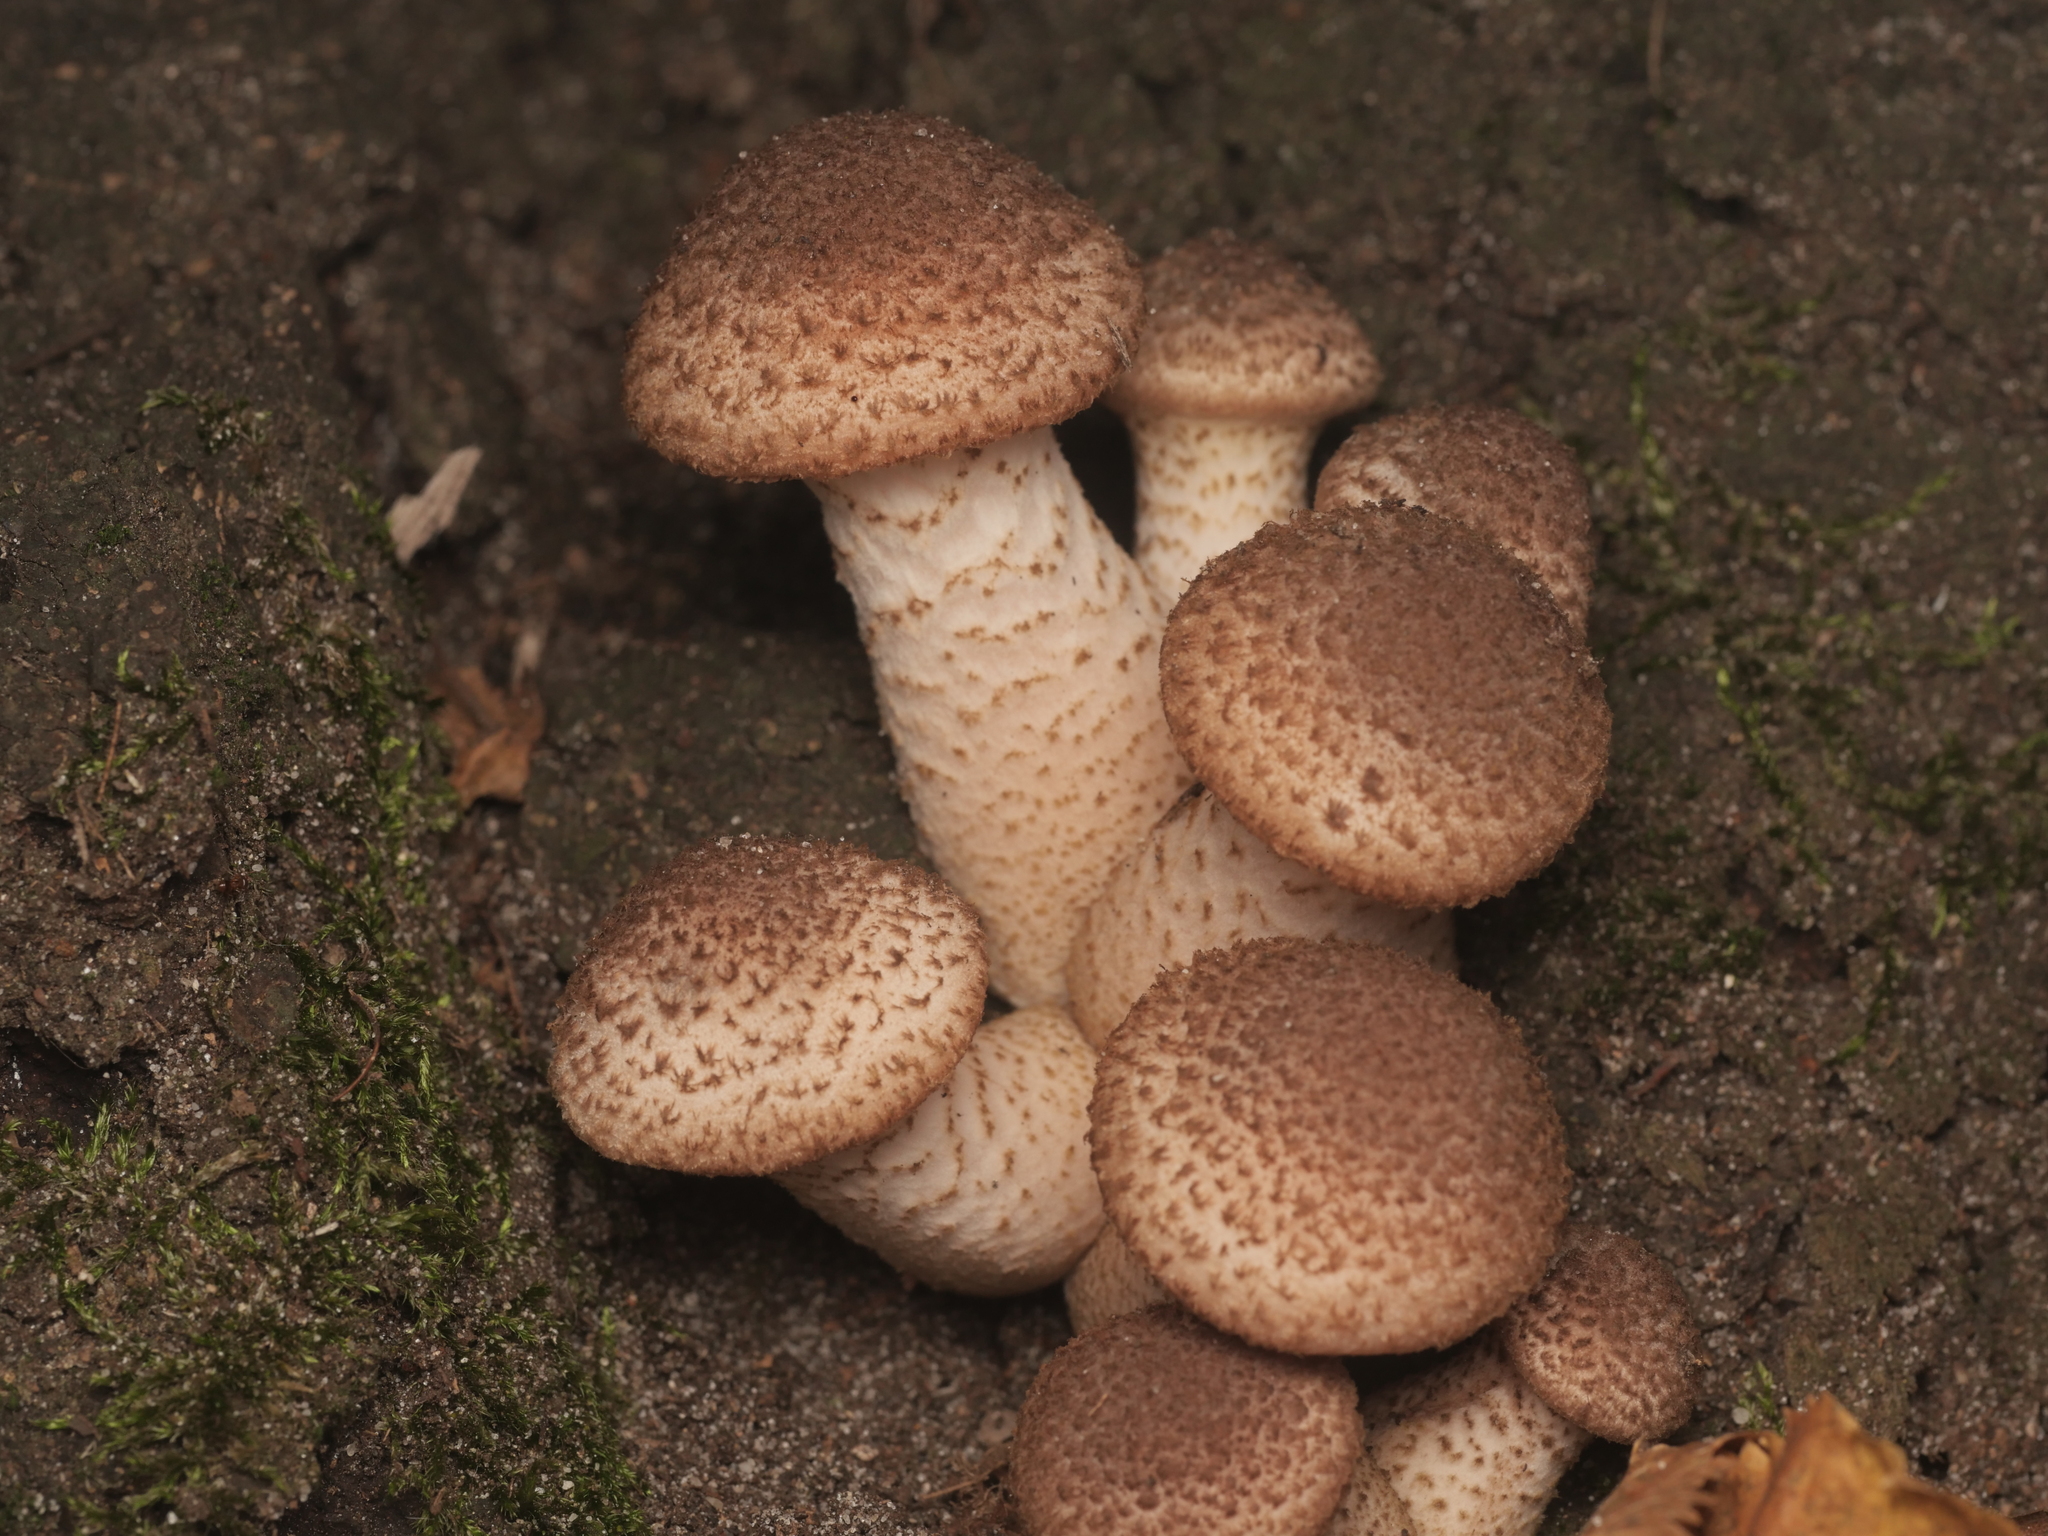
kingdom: Fungi
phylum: Basidiomycota
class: Agaricomycetes
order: Agaricales
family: Physalacriaceae
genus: Armillaria
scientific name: Armillaria ostoyae
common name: Dark honey fungus
